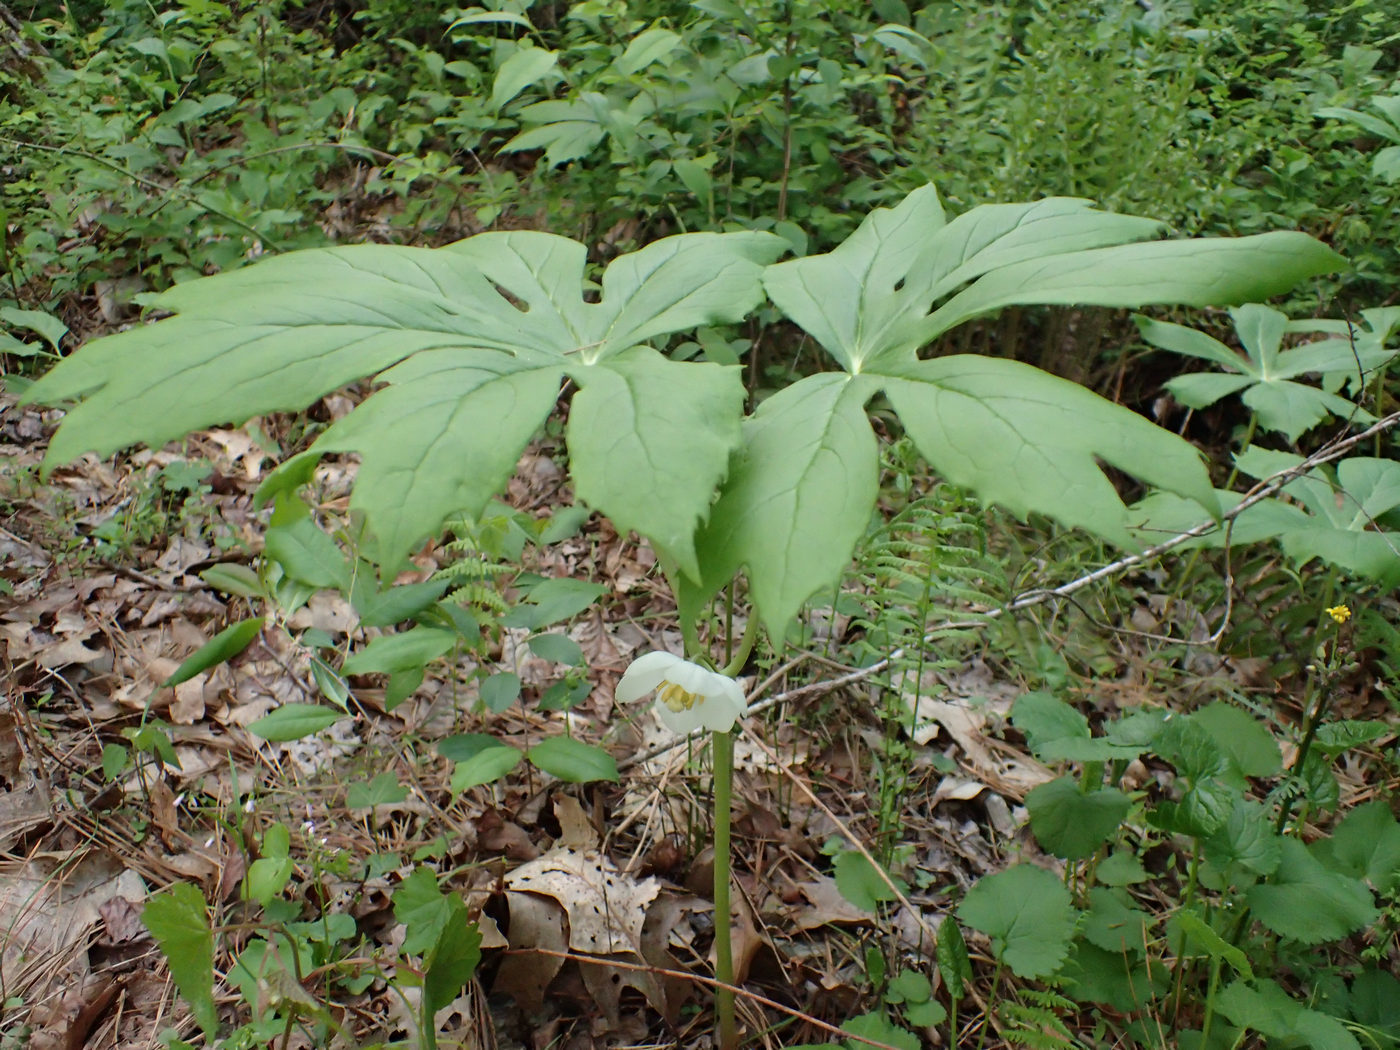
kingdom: Plantae
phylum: Tracheophyta
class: Magnoliopsida
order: Ranunculales
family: Berberidaceae
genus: Podophyllum
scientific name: Podophyllum peltatum
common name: Wild mandrake
